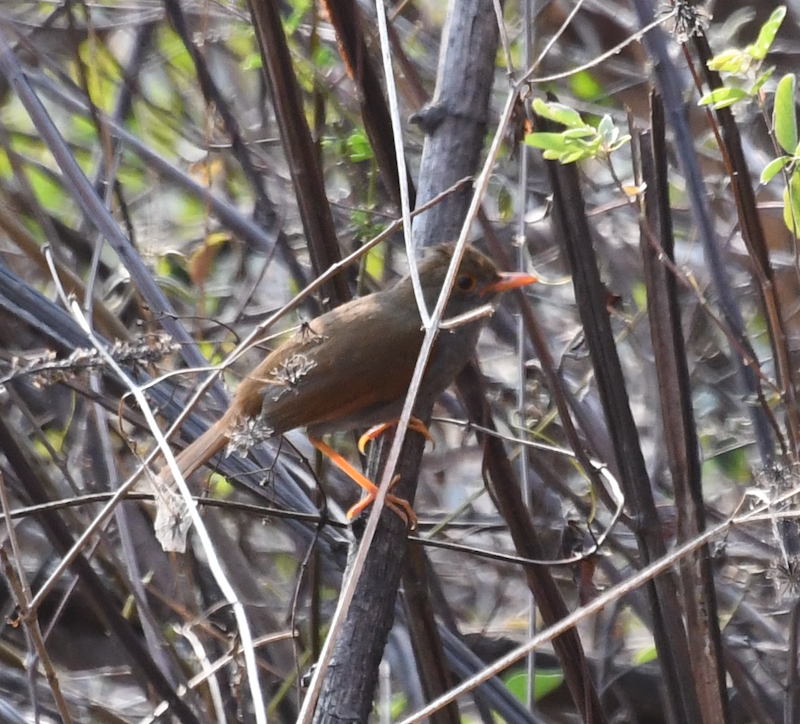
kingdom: Animalia
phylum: Chordata
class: Aves
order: Passeriformes
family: Turdidae
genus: Catharus
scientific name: Catharus aurantiirostris
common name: Orange-billed nightingale-thrush
